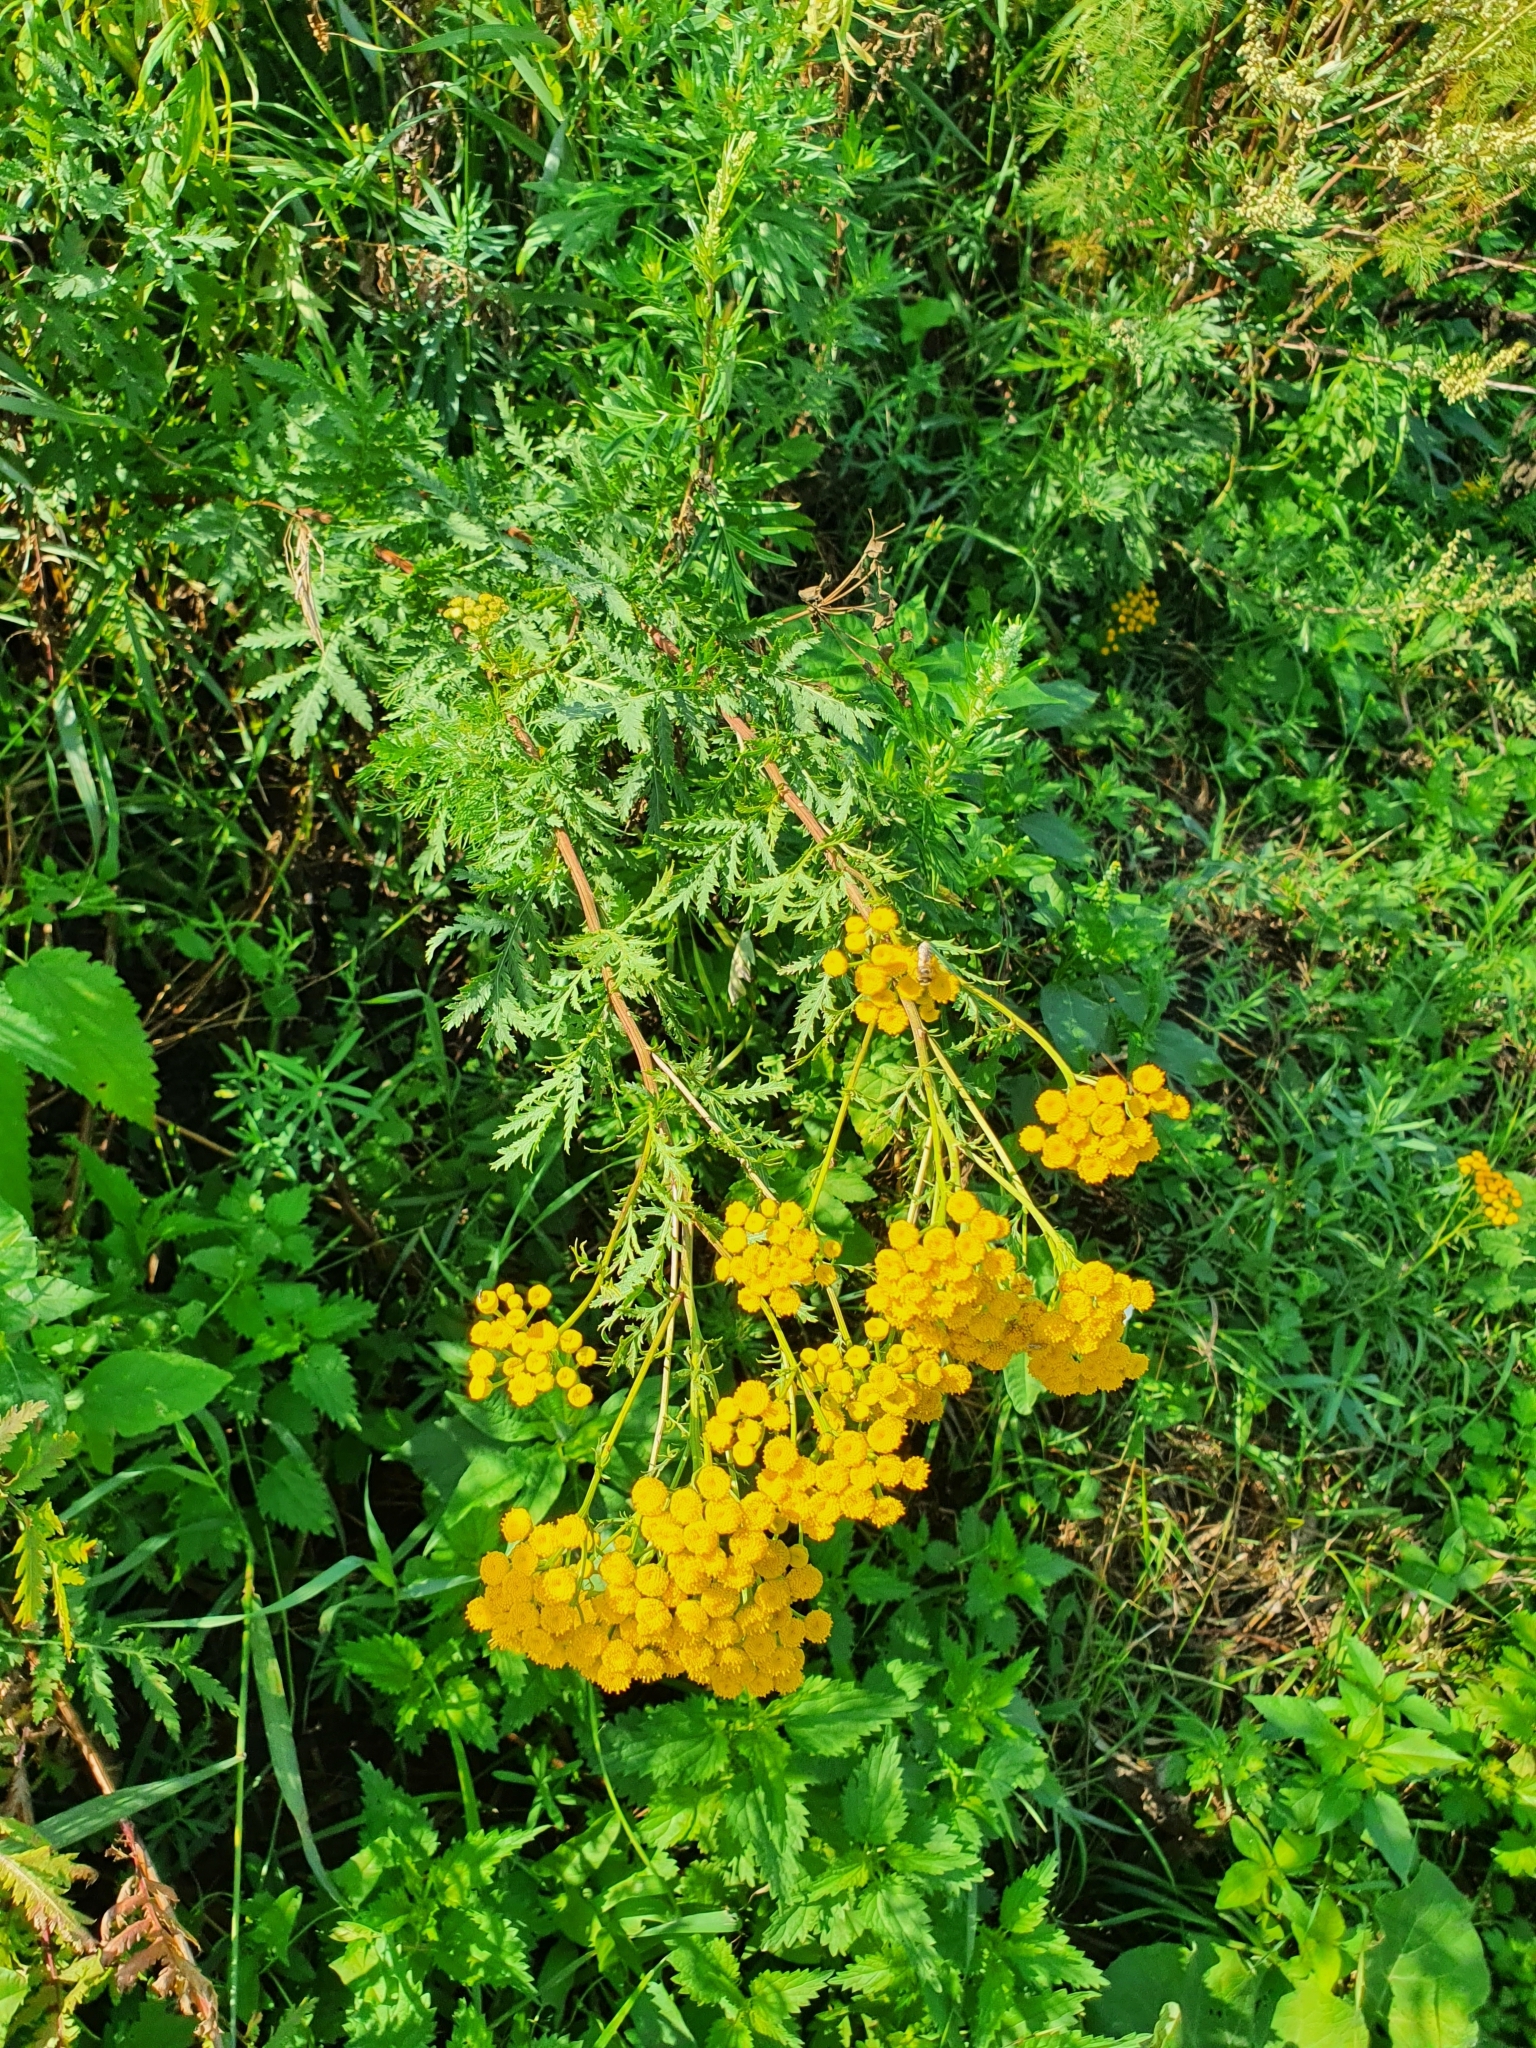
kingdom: Plantae
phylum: Tracheophyta
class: Magnoliopsida
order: Asterales
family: Asteraceae
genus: Tanacetum
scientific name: Tanacetum vulgare
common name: Common tansy
